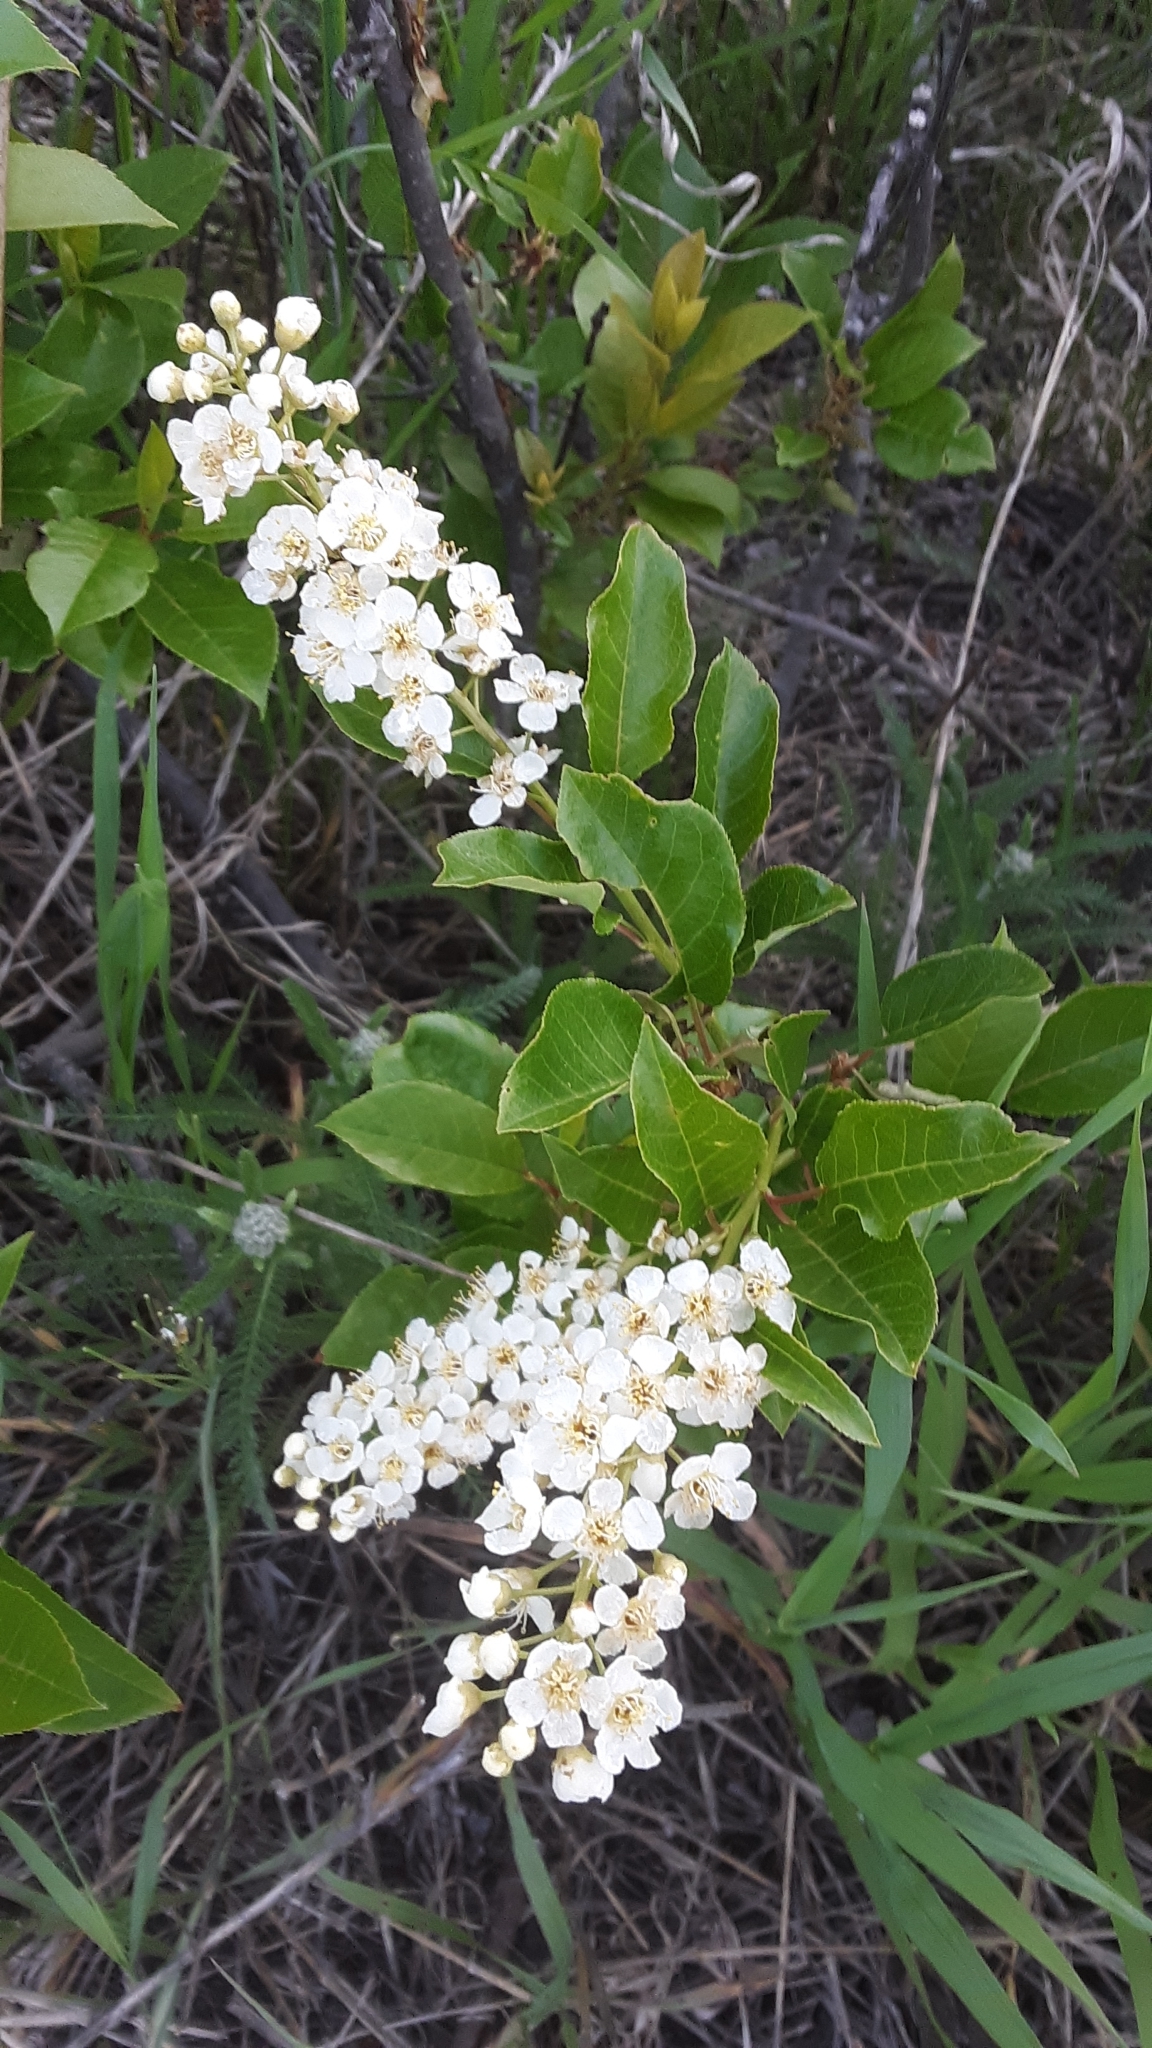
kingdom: Plantae
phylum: Tracheophyta
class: Magnoliopsida
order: Rosales
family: Rosaceae
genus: Prunus
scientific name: Prunus virginiana
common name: Chokecherry
